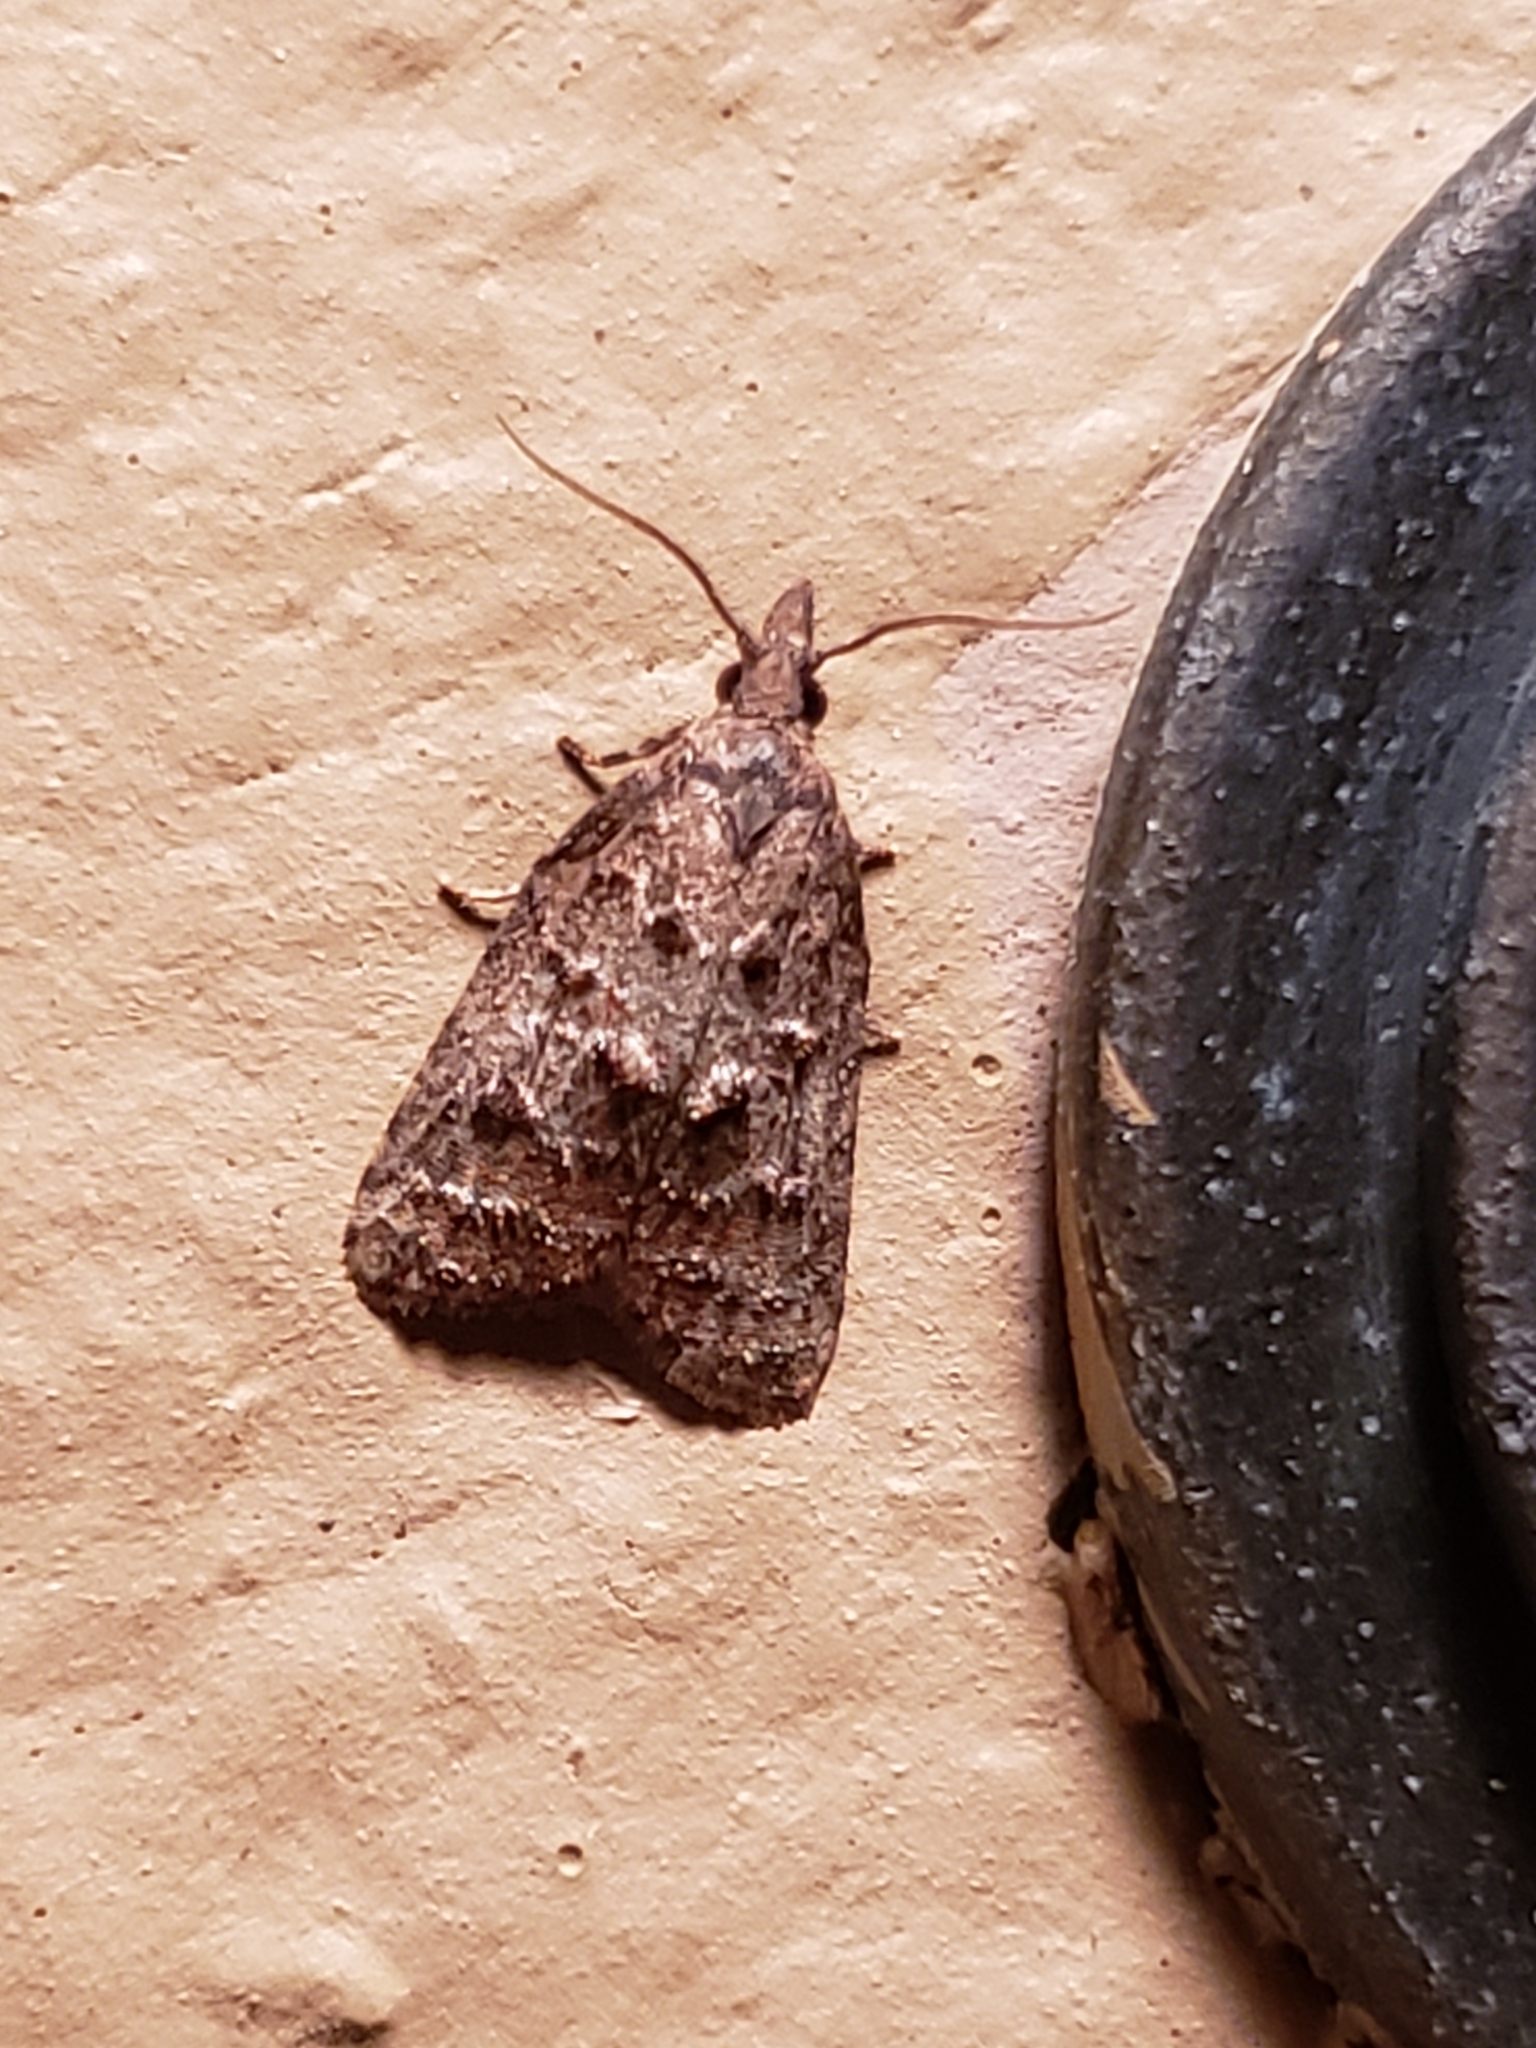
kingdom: Animalia
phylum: Arthropoda
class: Insecta
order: Lepidoptera
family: Tortricidae
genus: Platynota
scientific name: Platynota idaeusalis
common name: Tufted apple bud moth
